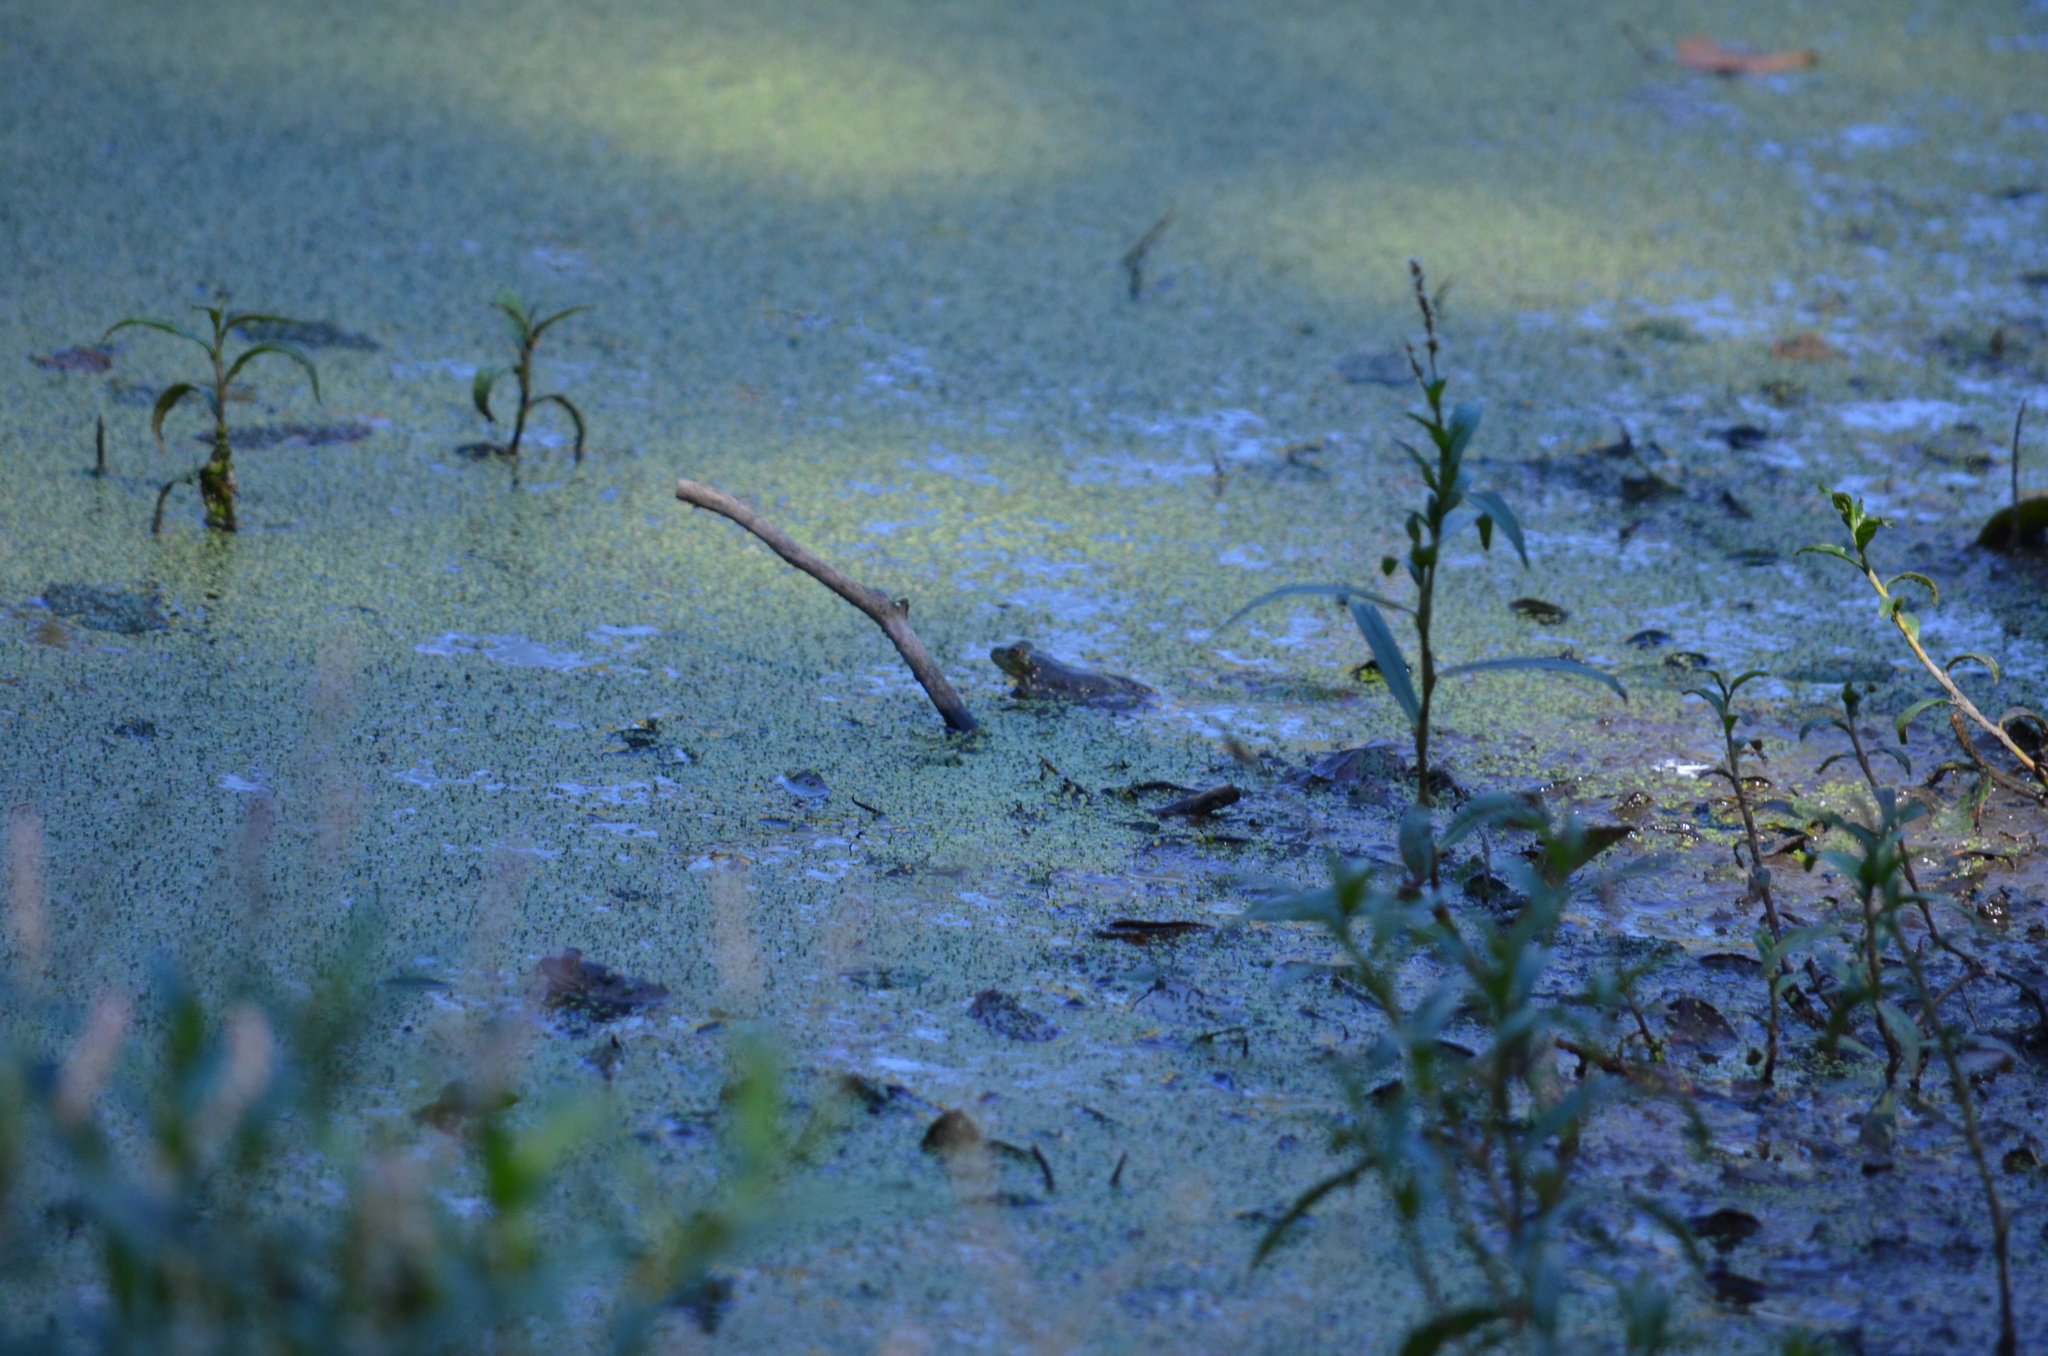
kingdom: Animalia
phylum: Chordata
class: Amphibia
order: Anura
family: Ranidae
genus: Lithobates
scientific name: Lithobates catesbeianus
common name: American bullfrog
